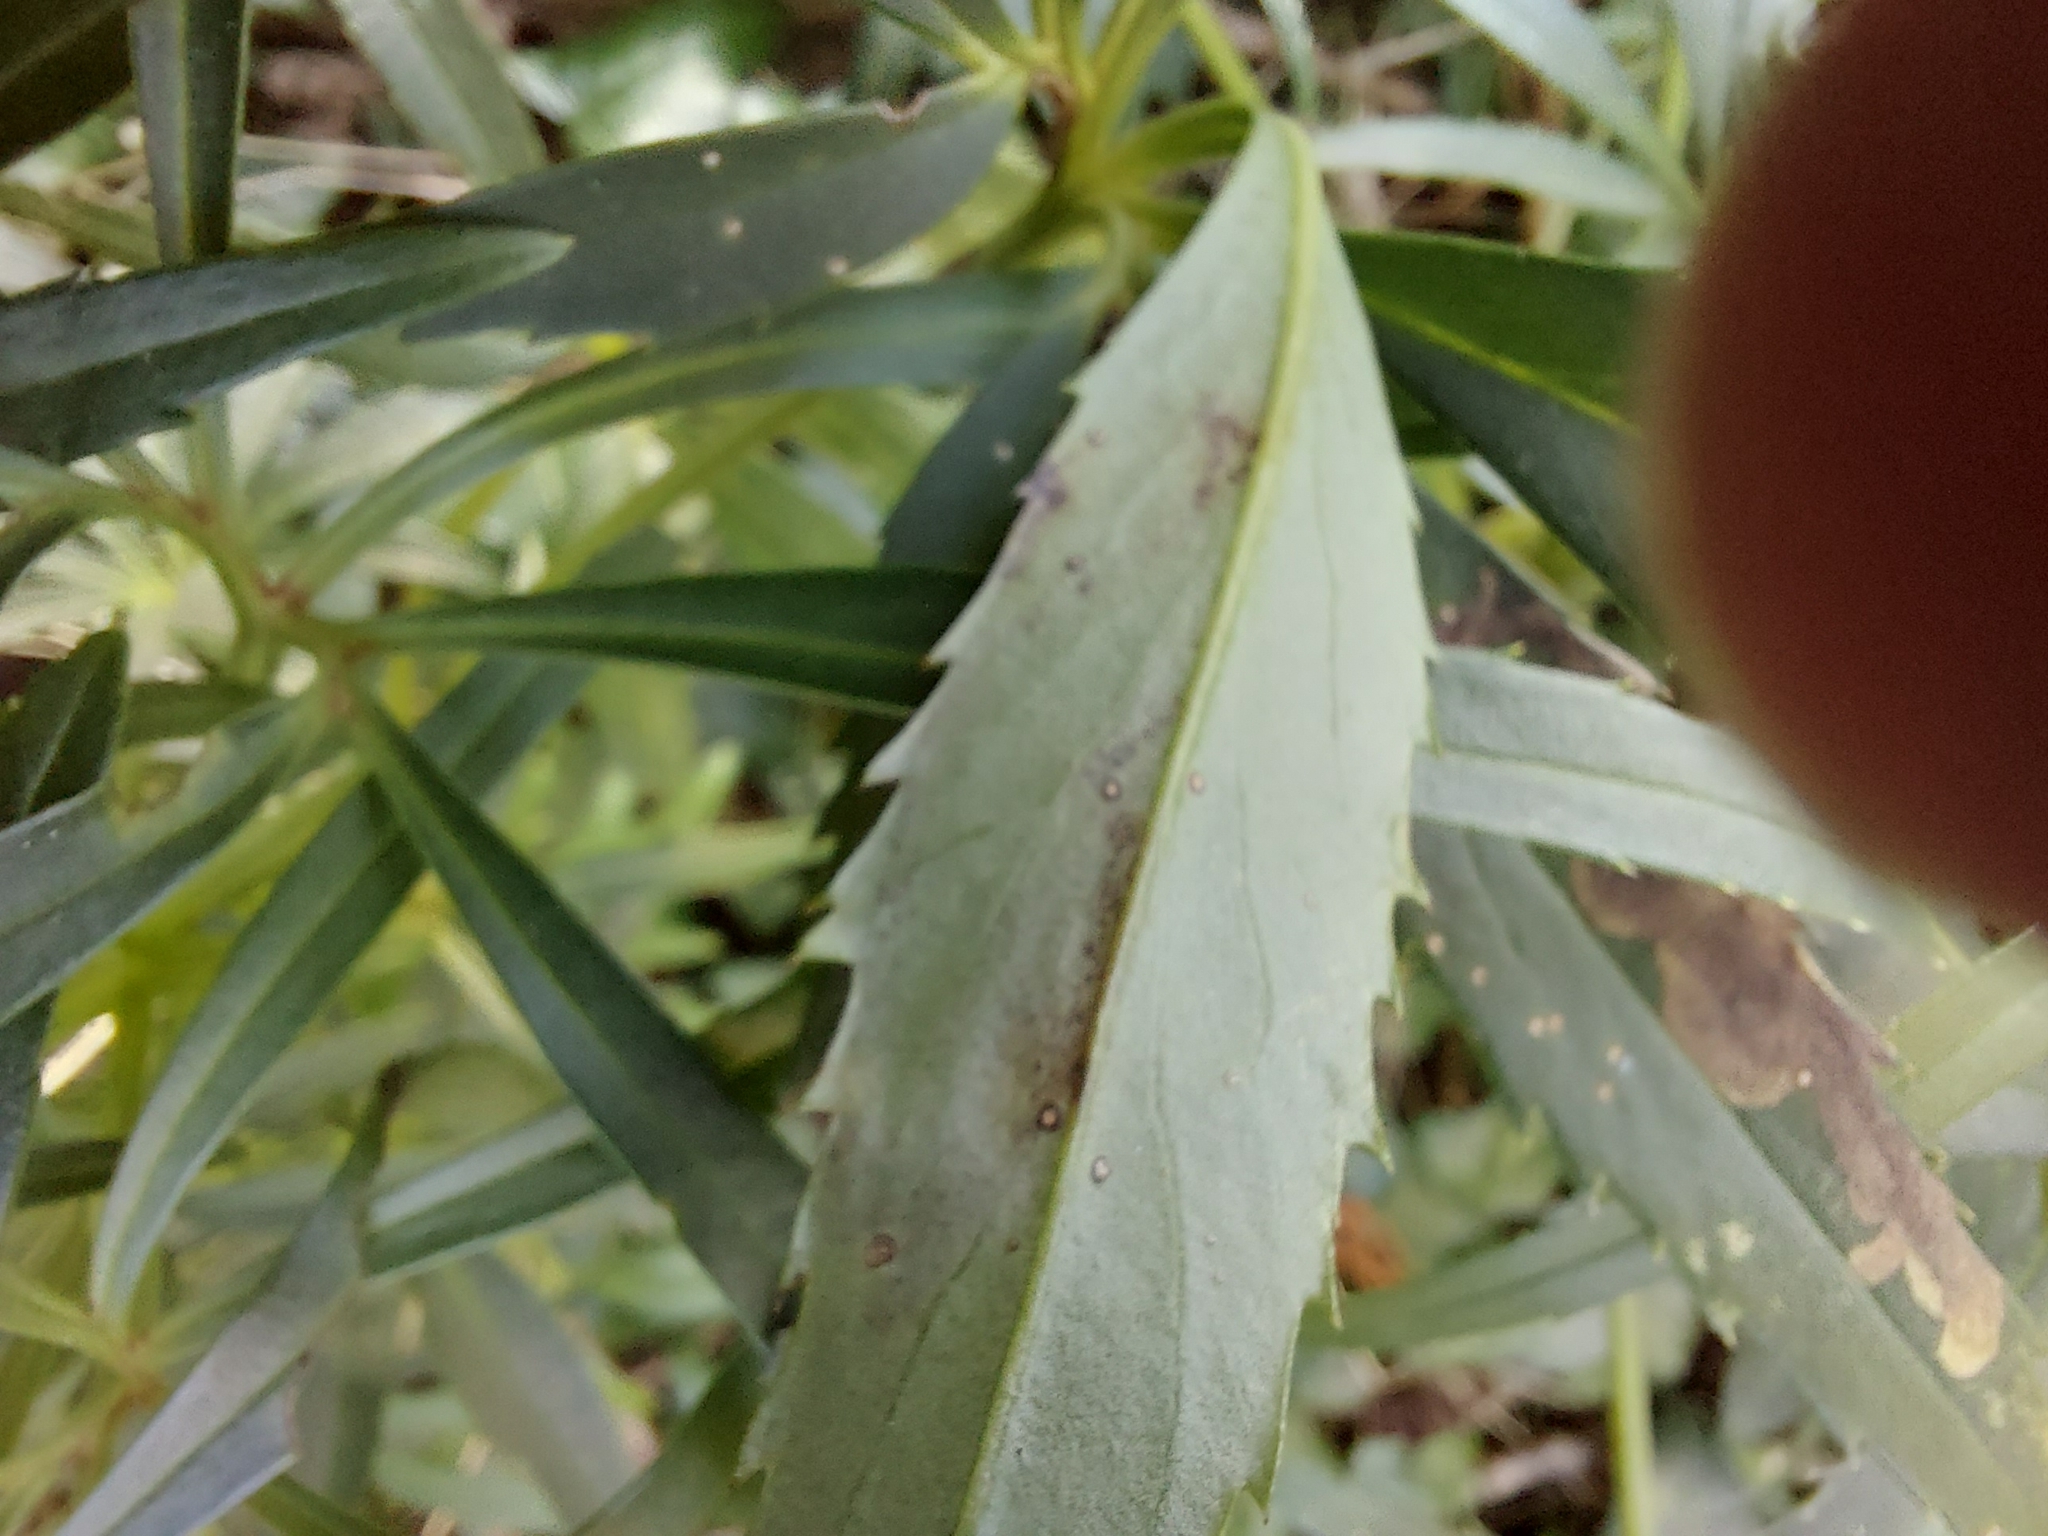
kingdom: Animalia
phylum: Arthropoda
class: Insecta
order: Diptera
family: Agromyzidae
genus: Phytomyza
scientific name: Phytomyza hellebori
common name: Fly
